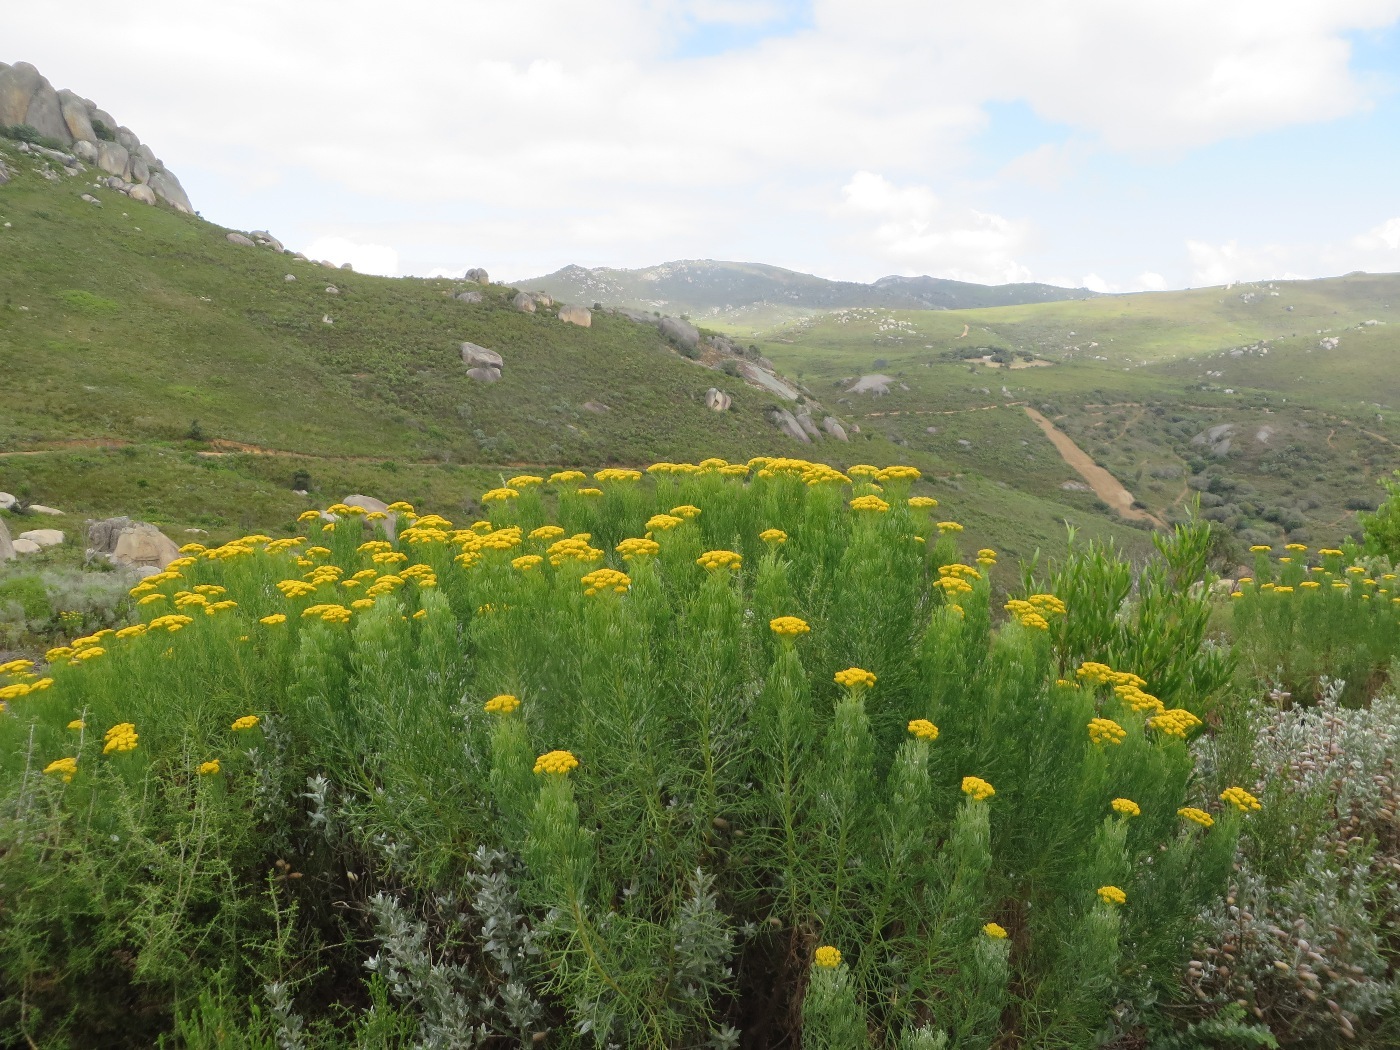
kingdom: Plantae
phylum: Tracheophyta
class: Magnoliopsida
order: Asterales
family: Asteraceae
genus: Hymenolepis
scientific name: Hymenolepis crithmifolia
